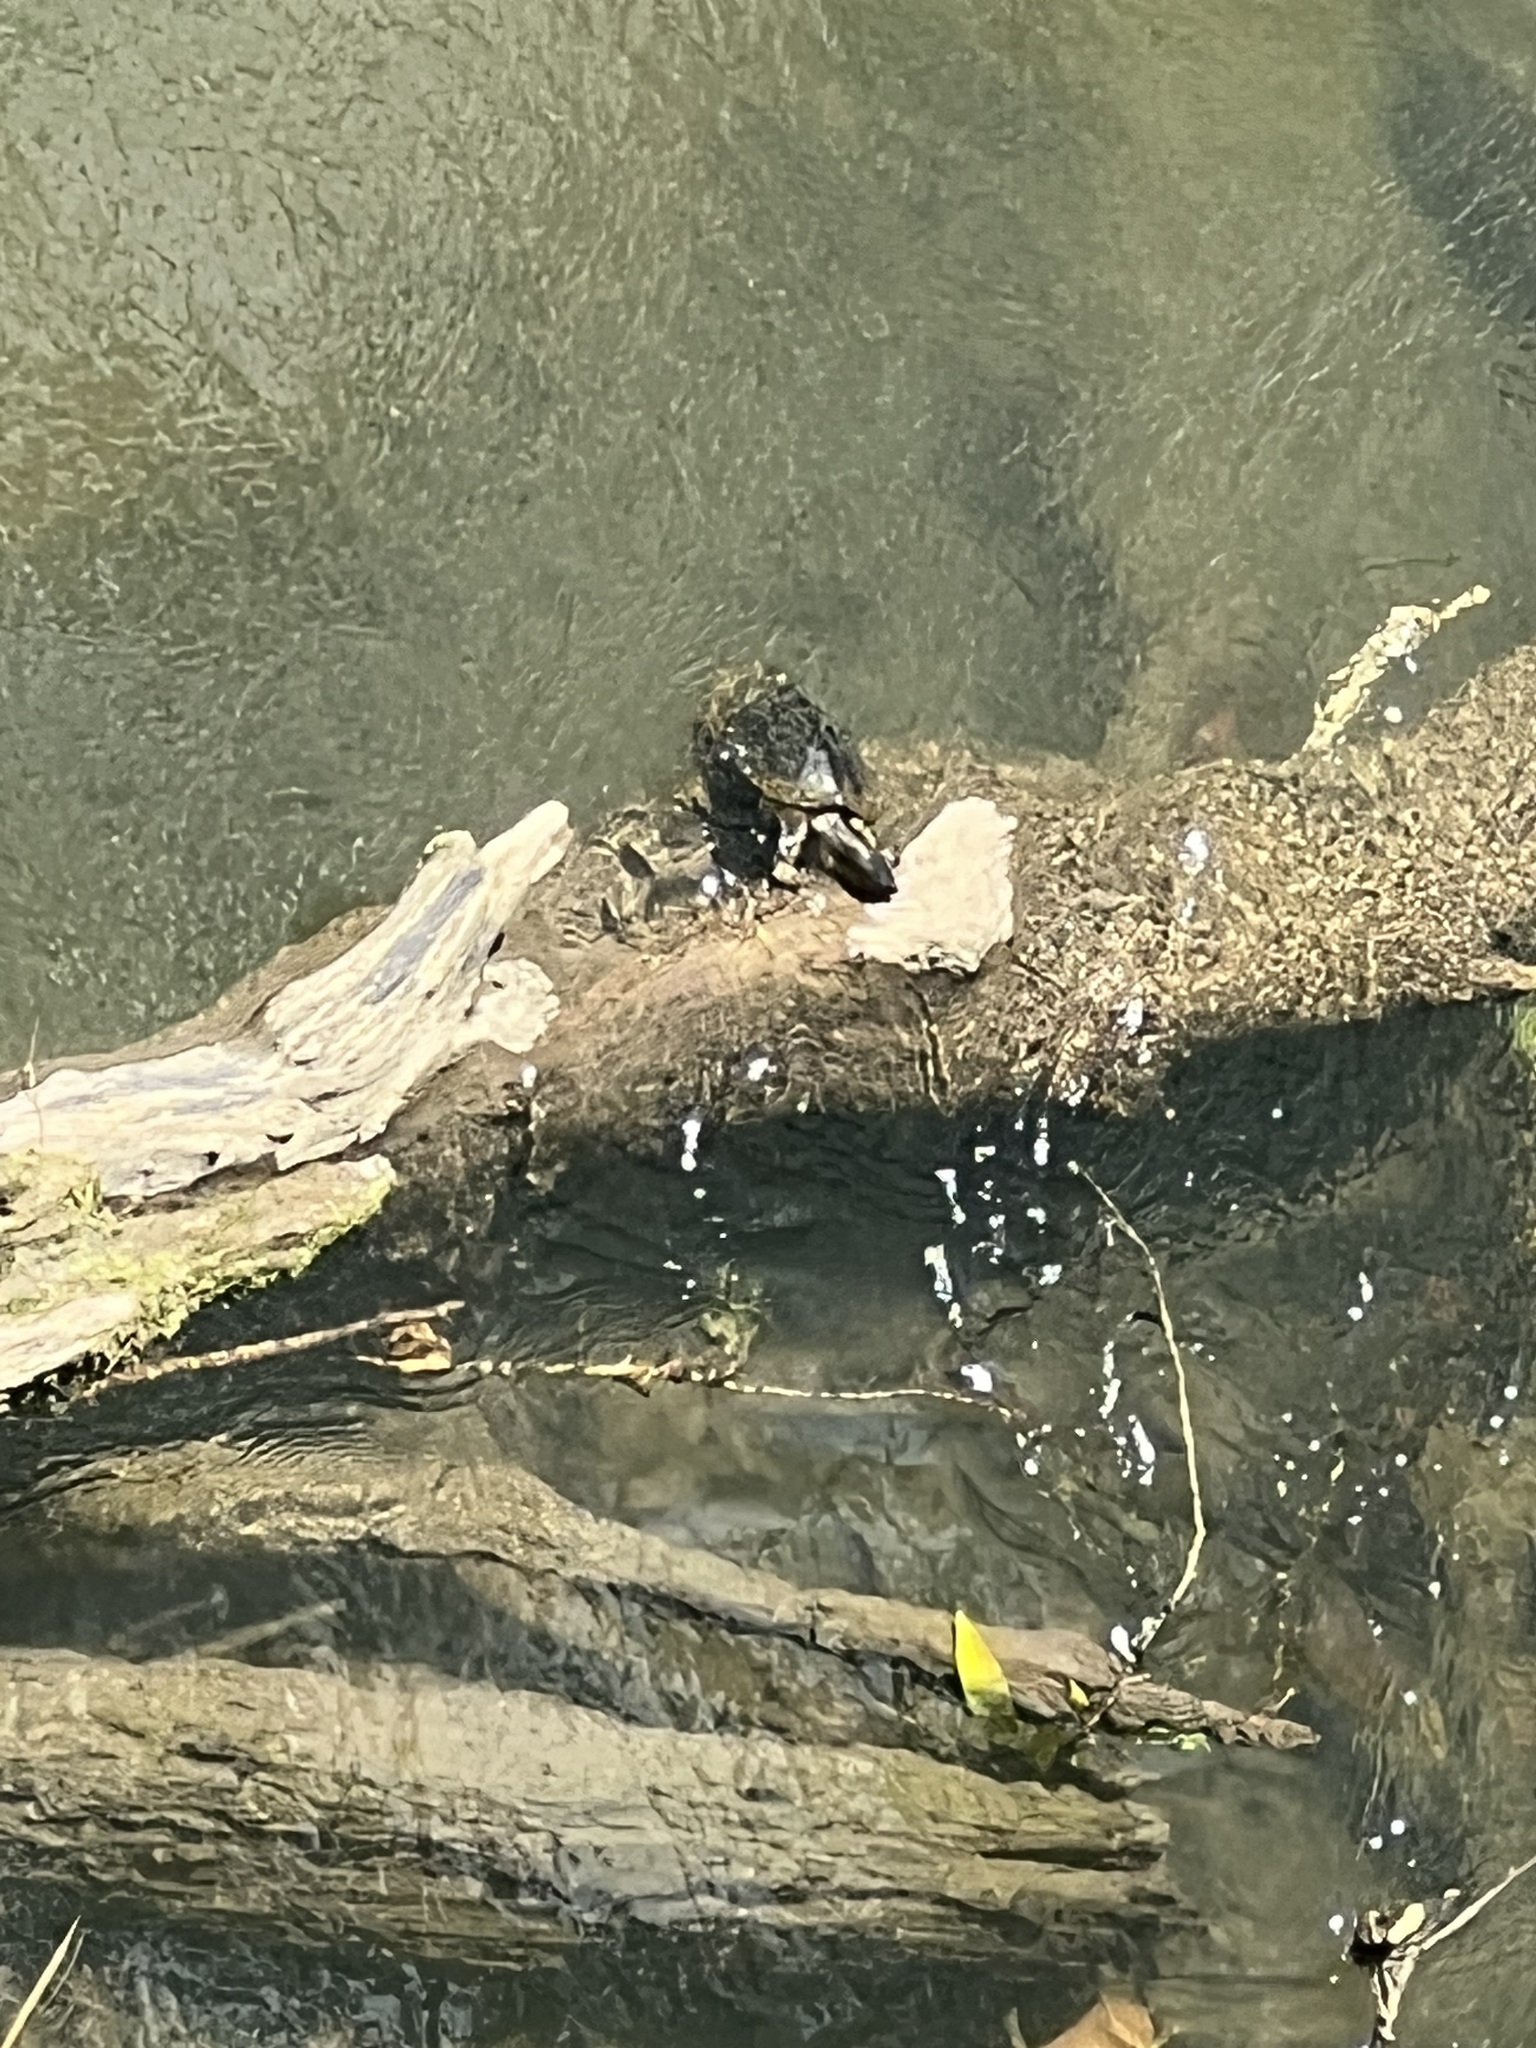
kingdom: Animalia
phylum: Chordata
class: Testudines
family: Geoemydidae
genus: Rhinoclemmys
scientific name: Rhinoclemmys funerea
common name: Black wood turtle
